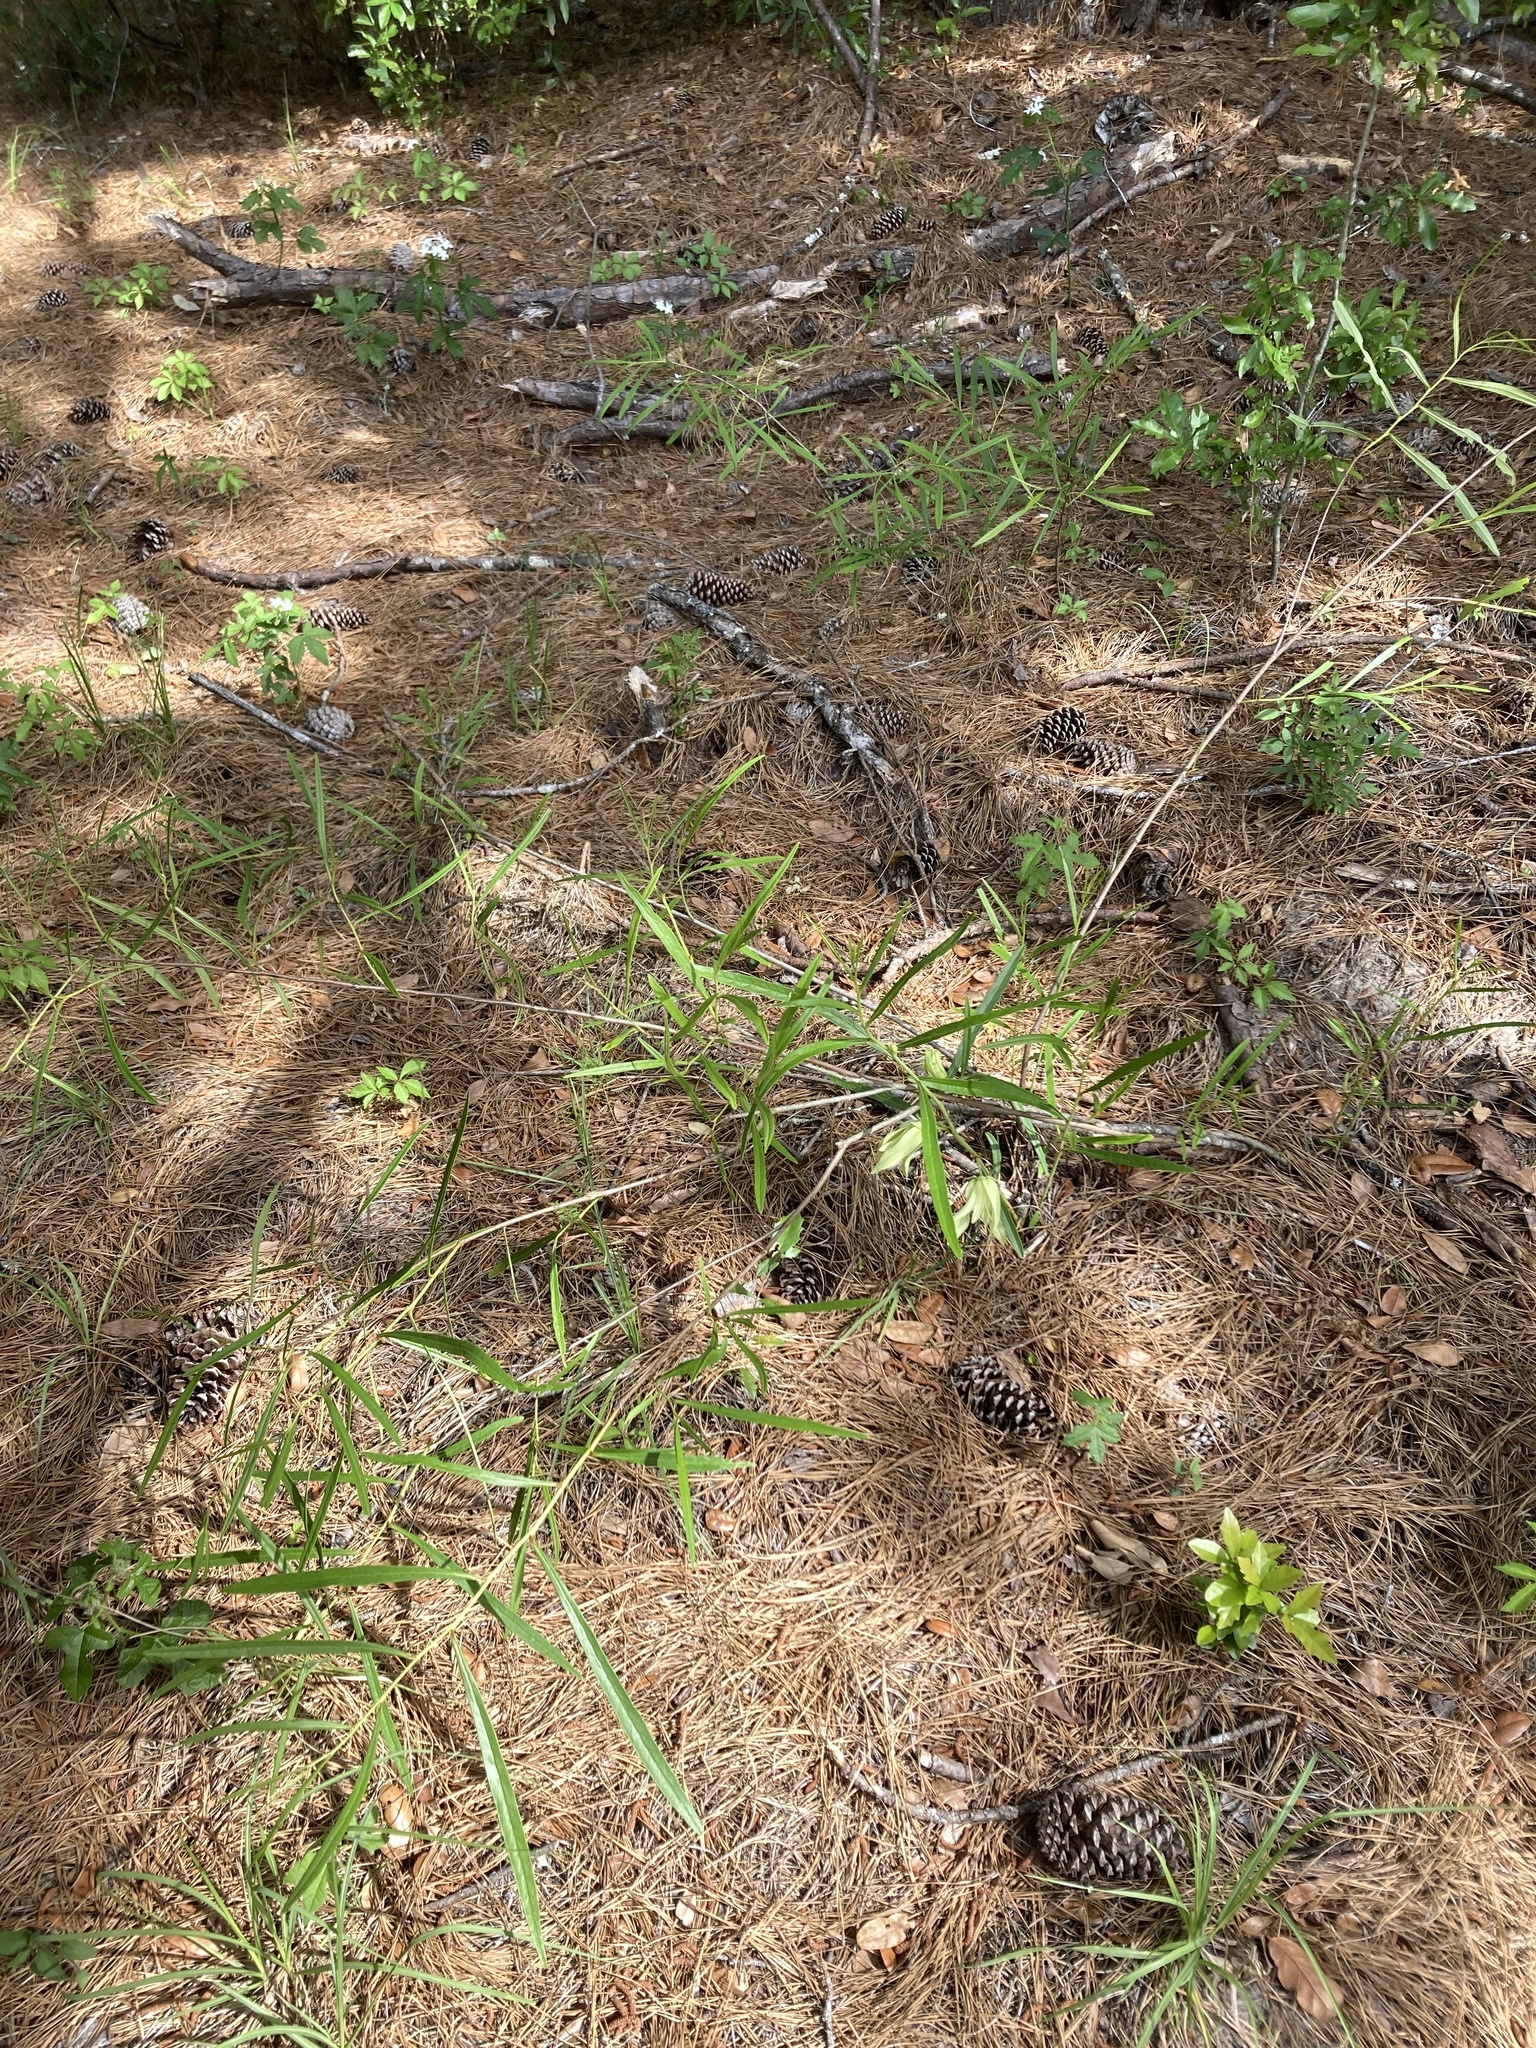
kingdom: Plantae
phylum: Tracheophyta
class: Magnoliopsida
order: Magnoliales
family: Annonaceae
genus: Asimina
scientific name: Asimina longifolia
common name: Polecatbush
